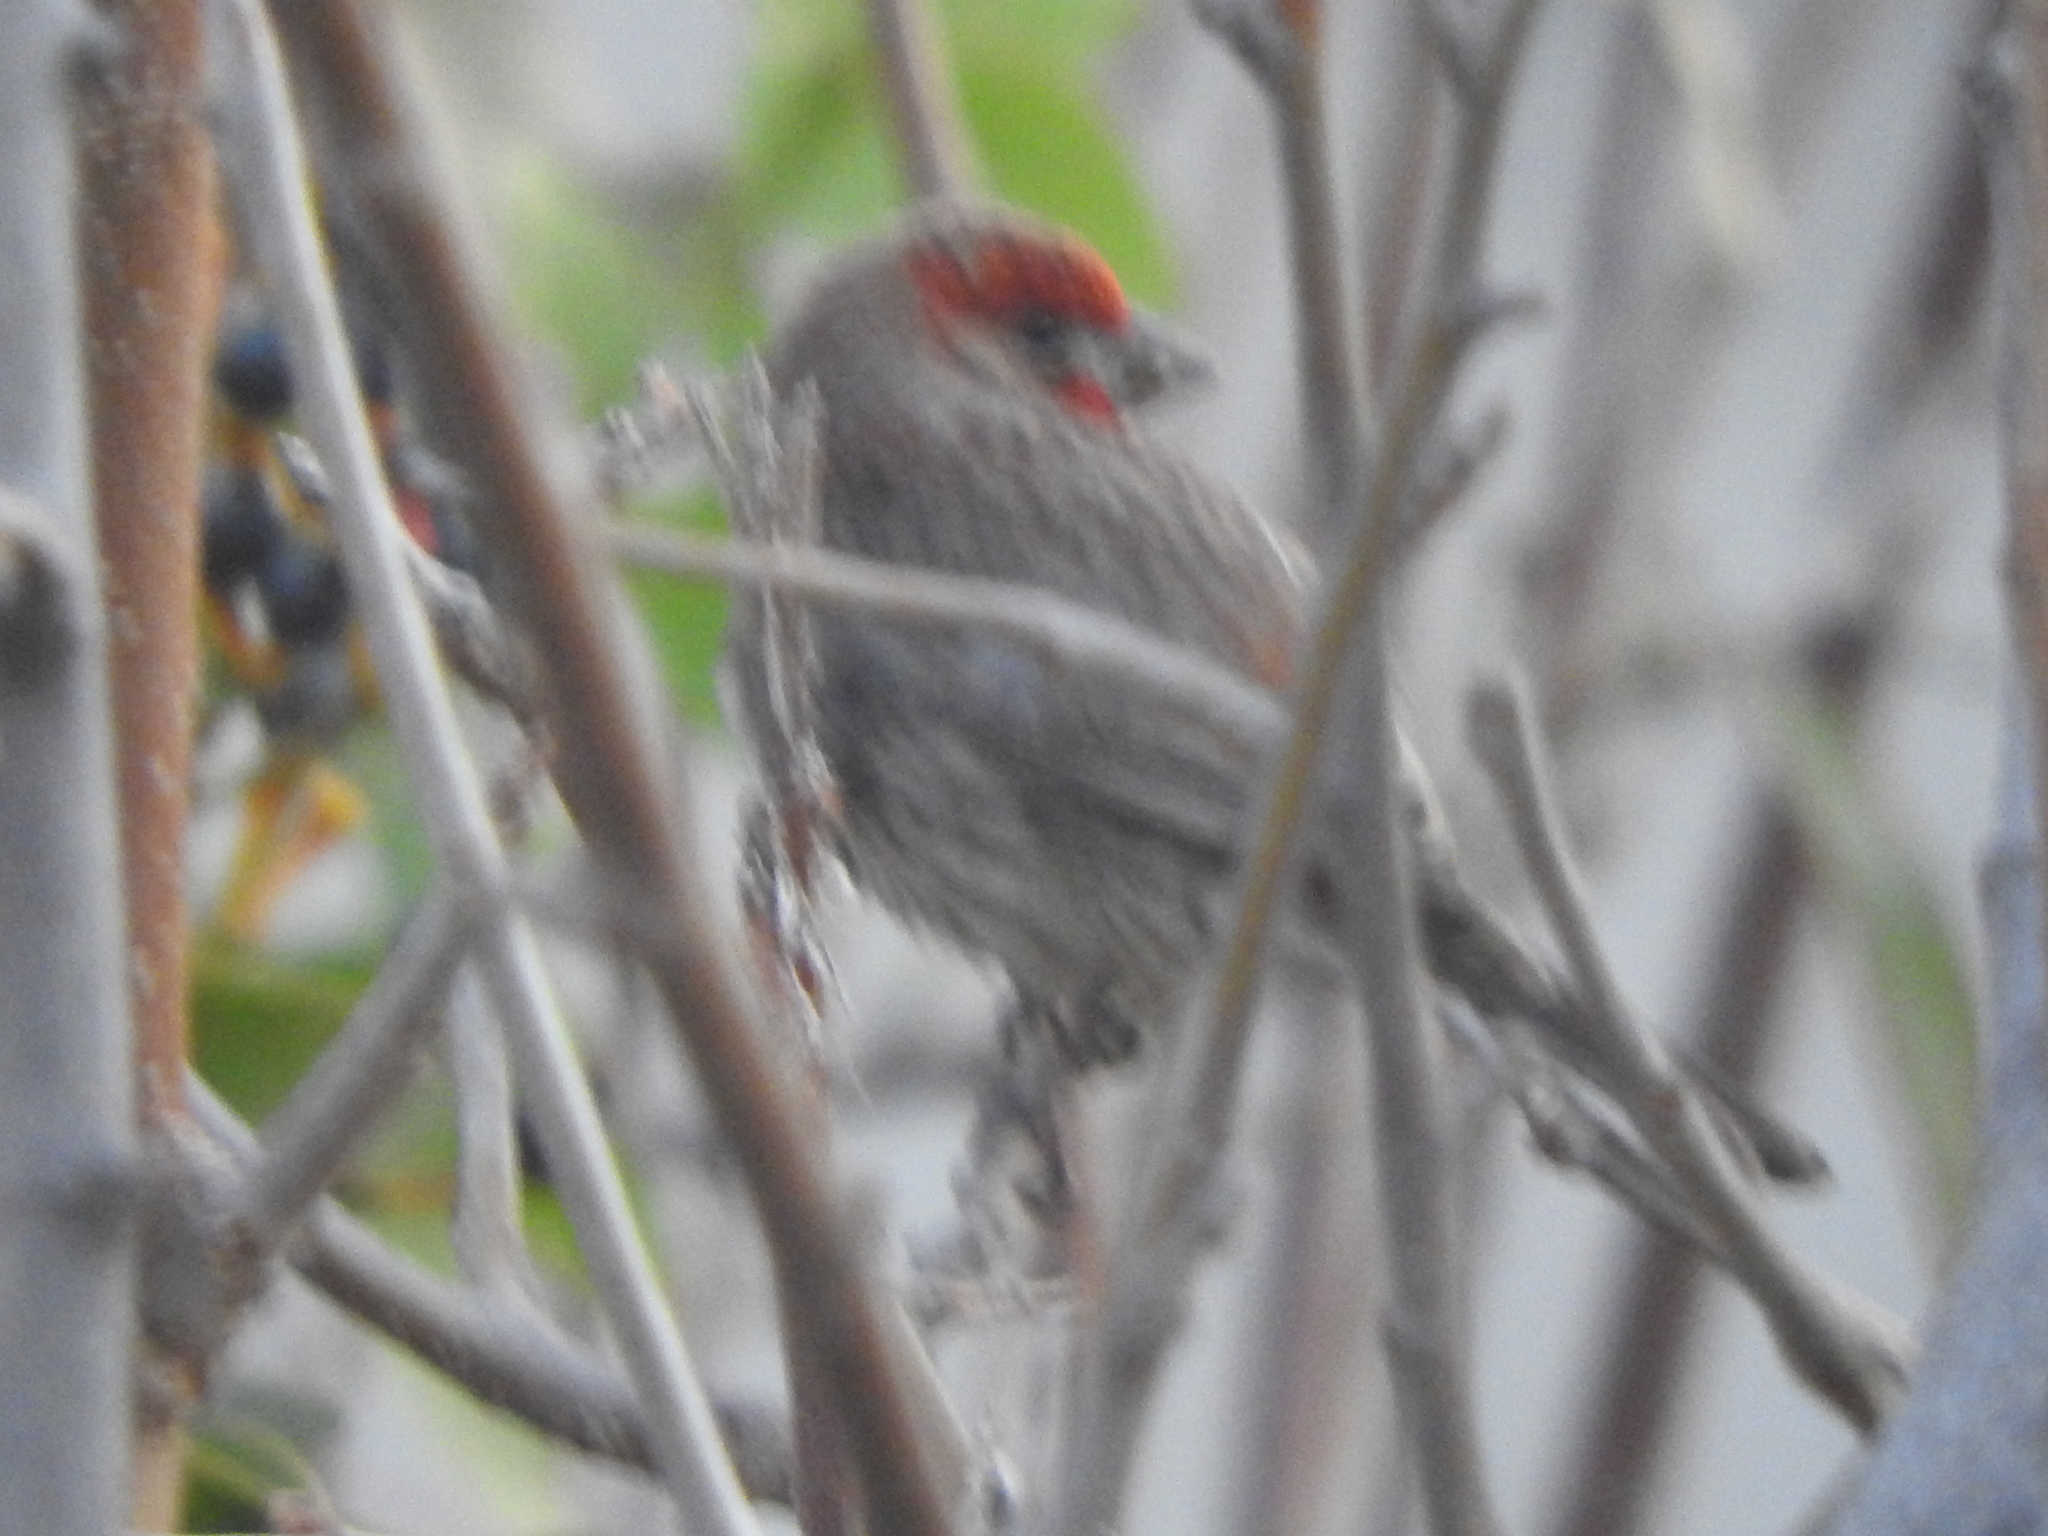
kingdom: Animalia
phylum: Chordata
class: Aves
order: Passeriformes
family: Fringillidae
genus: Haemorhous
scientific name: Haemorhous mexicanus
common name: House finch
